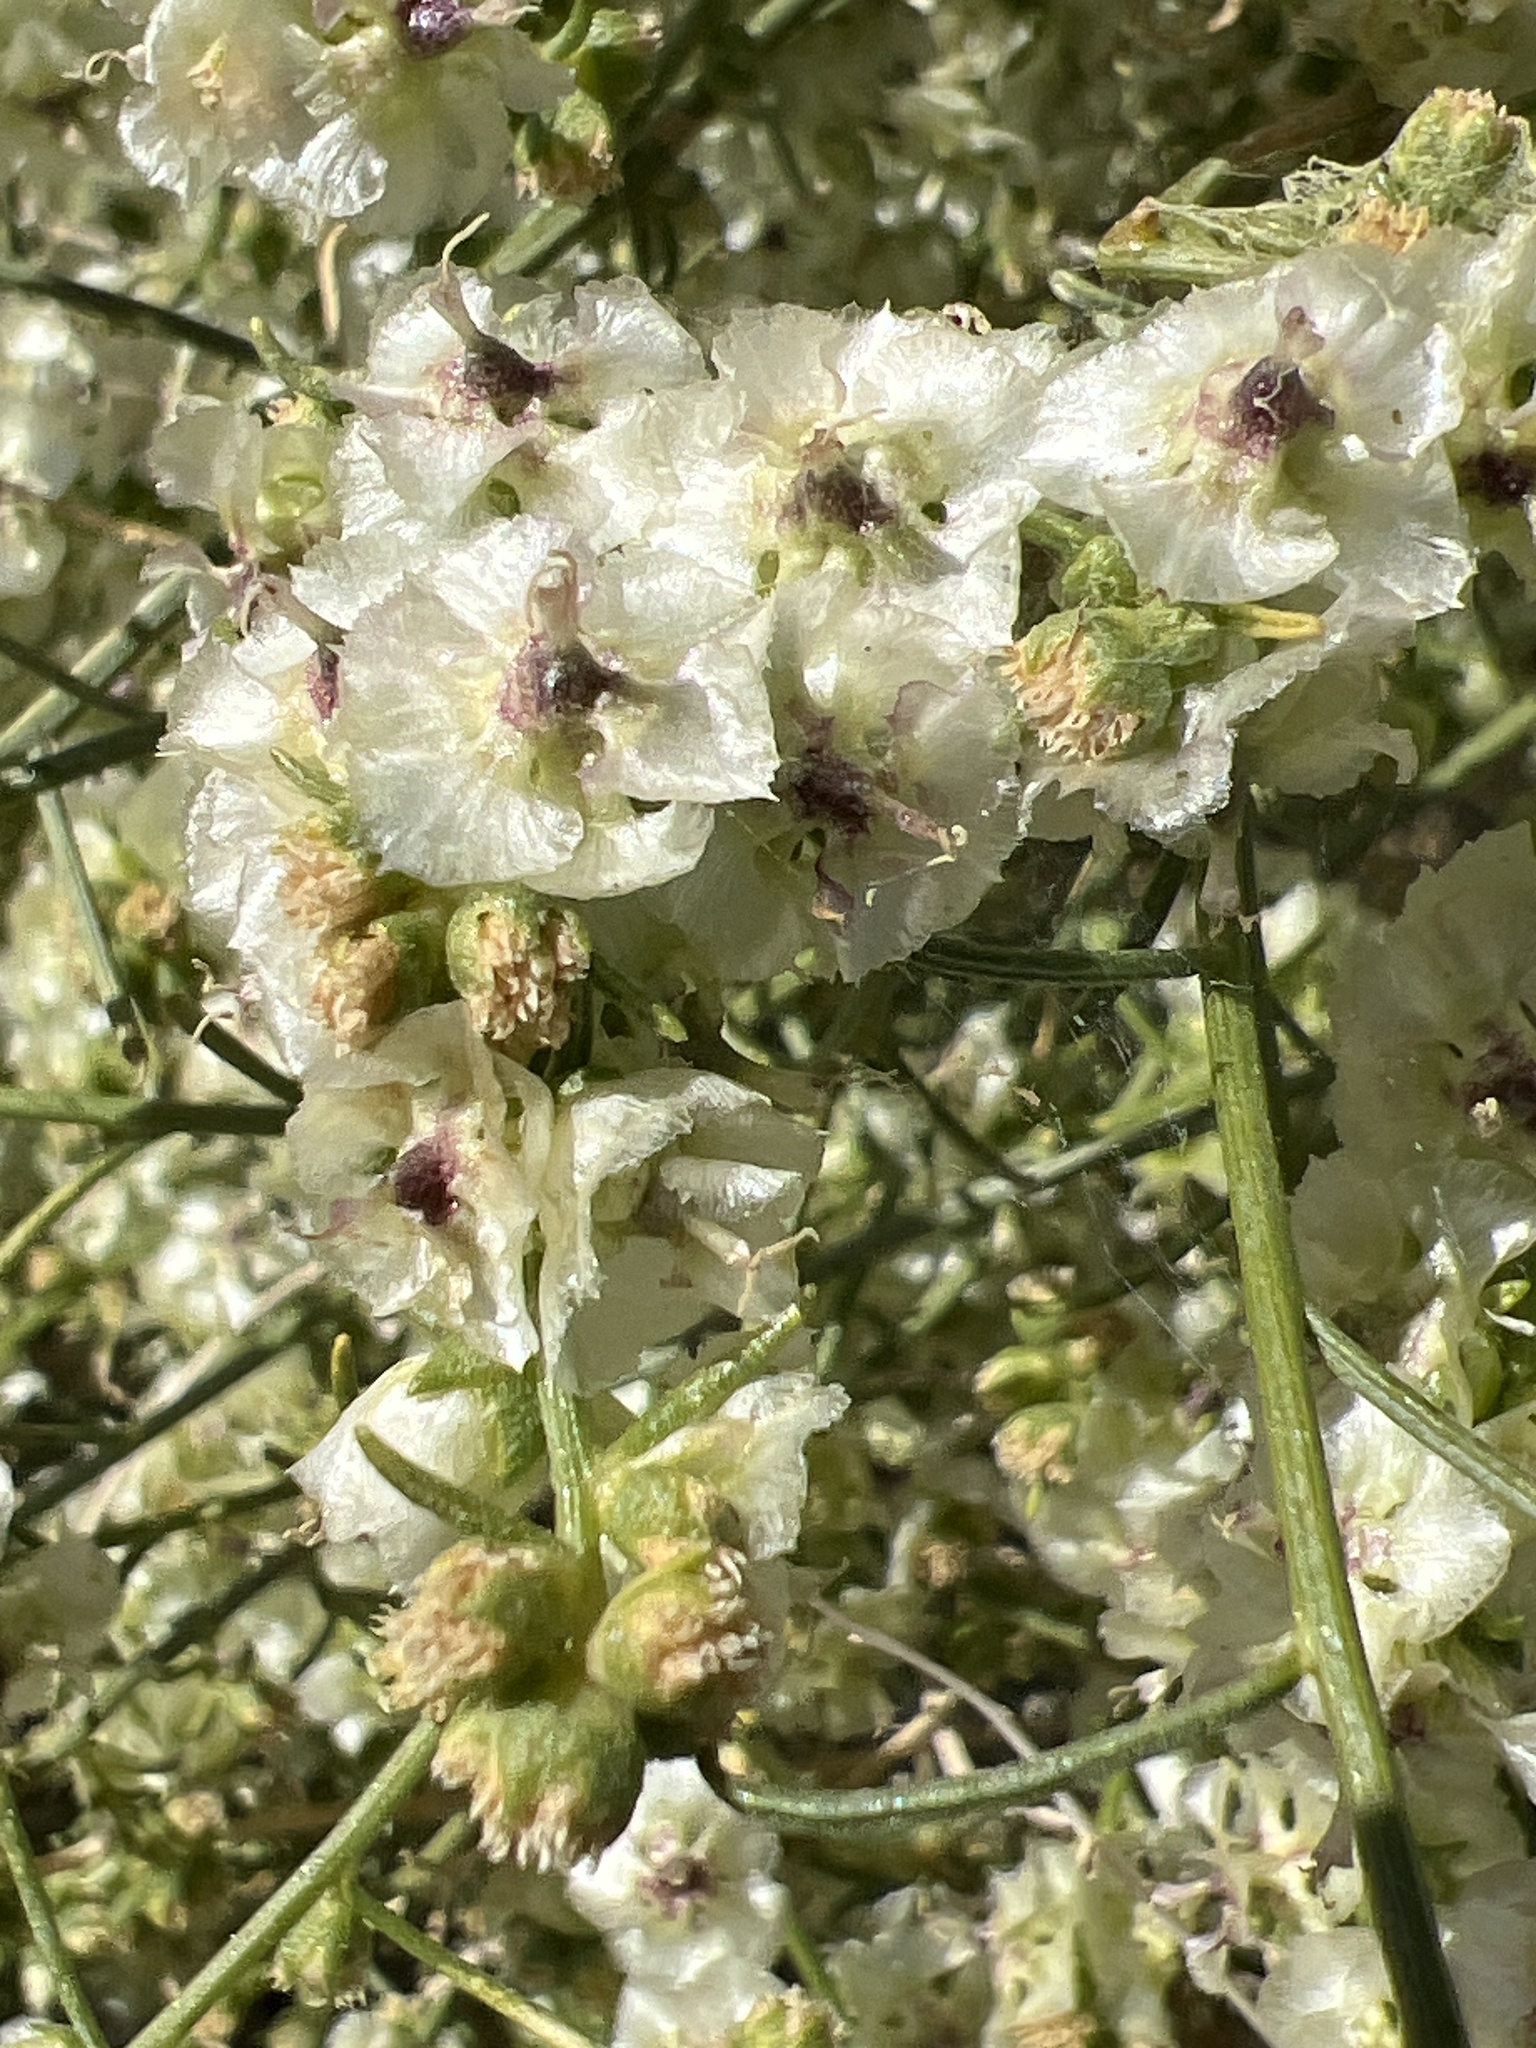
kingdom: Plantae
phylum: Tracheophyta
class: Magnoliopsida
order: Asterales
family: Asteraceae
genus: Ambrosia
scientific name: Ambrosia salsola
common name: Burrobrush
